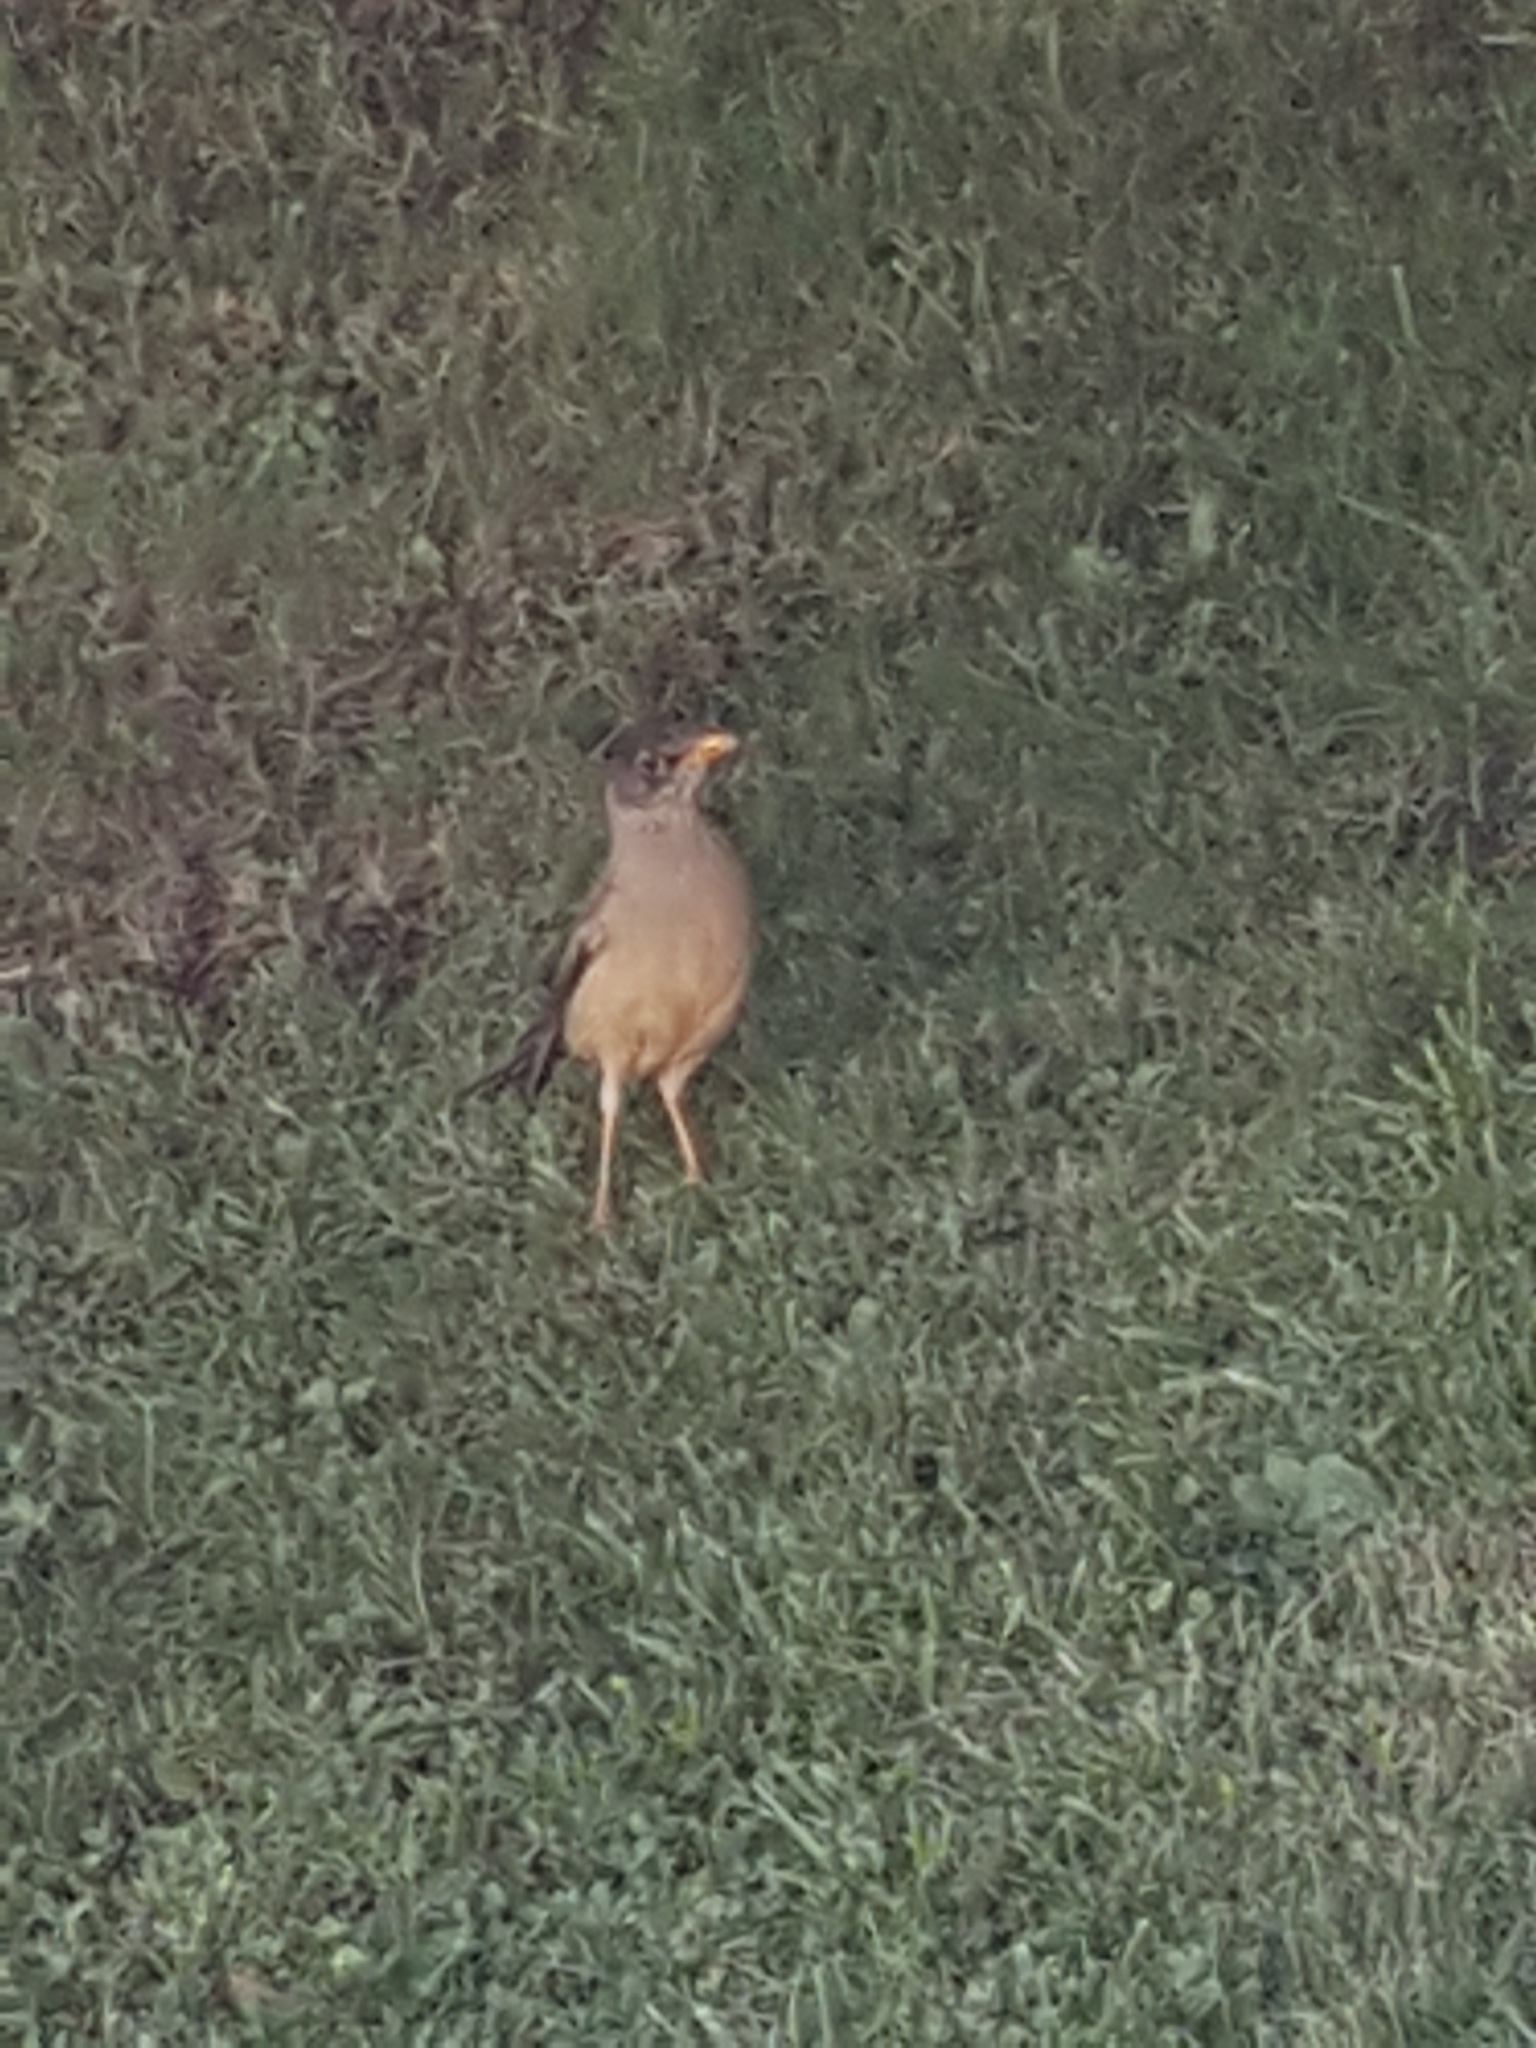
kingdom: Animalia
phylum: Chordata
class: Aves
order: Passeriformes
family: Turdidae
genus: Turdus
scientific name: Turdus falcklandii
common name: Austral thrush
